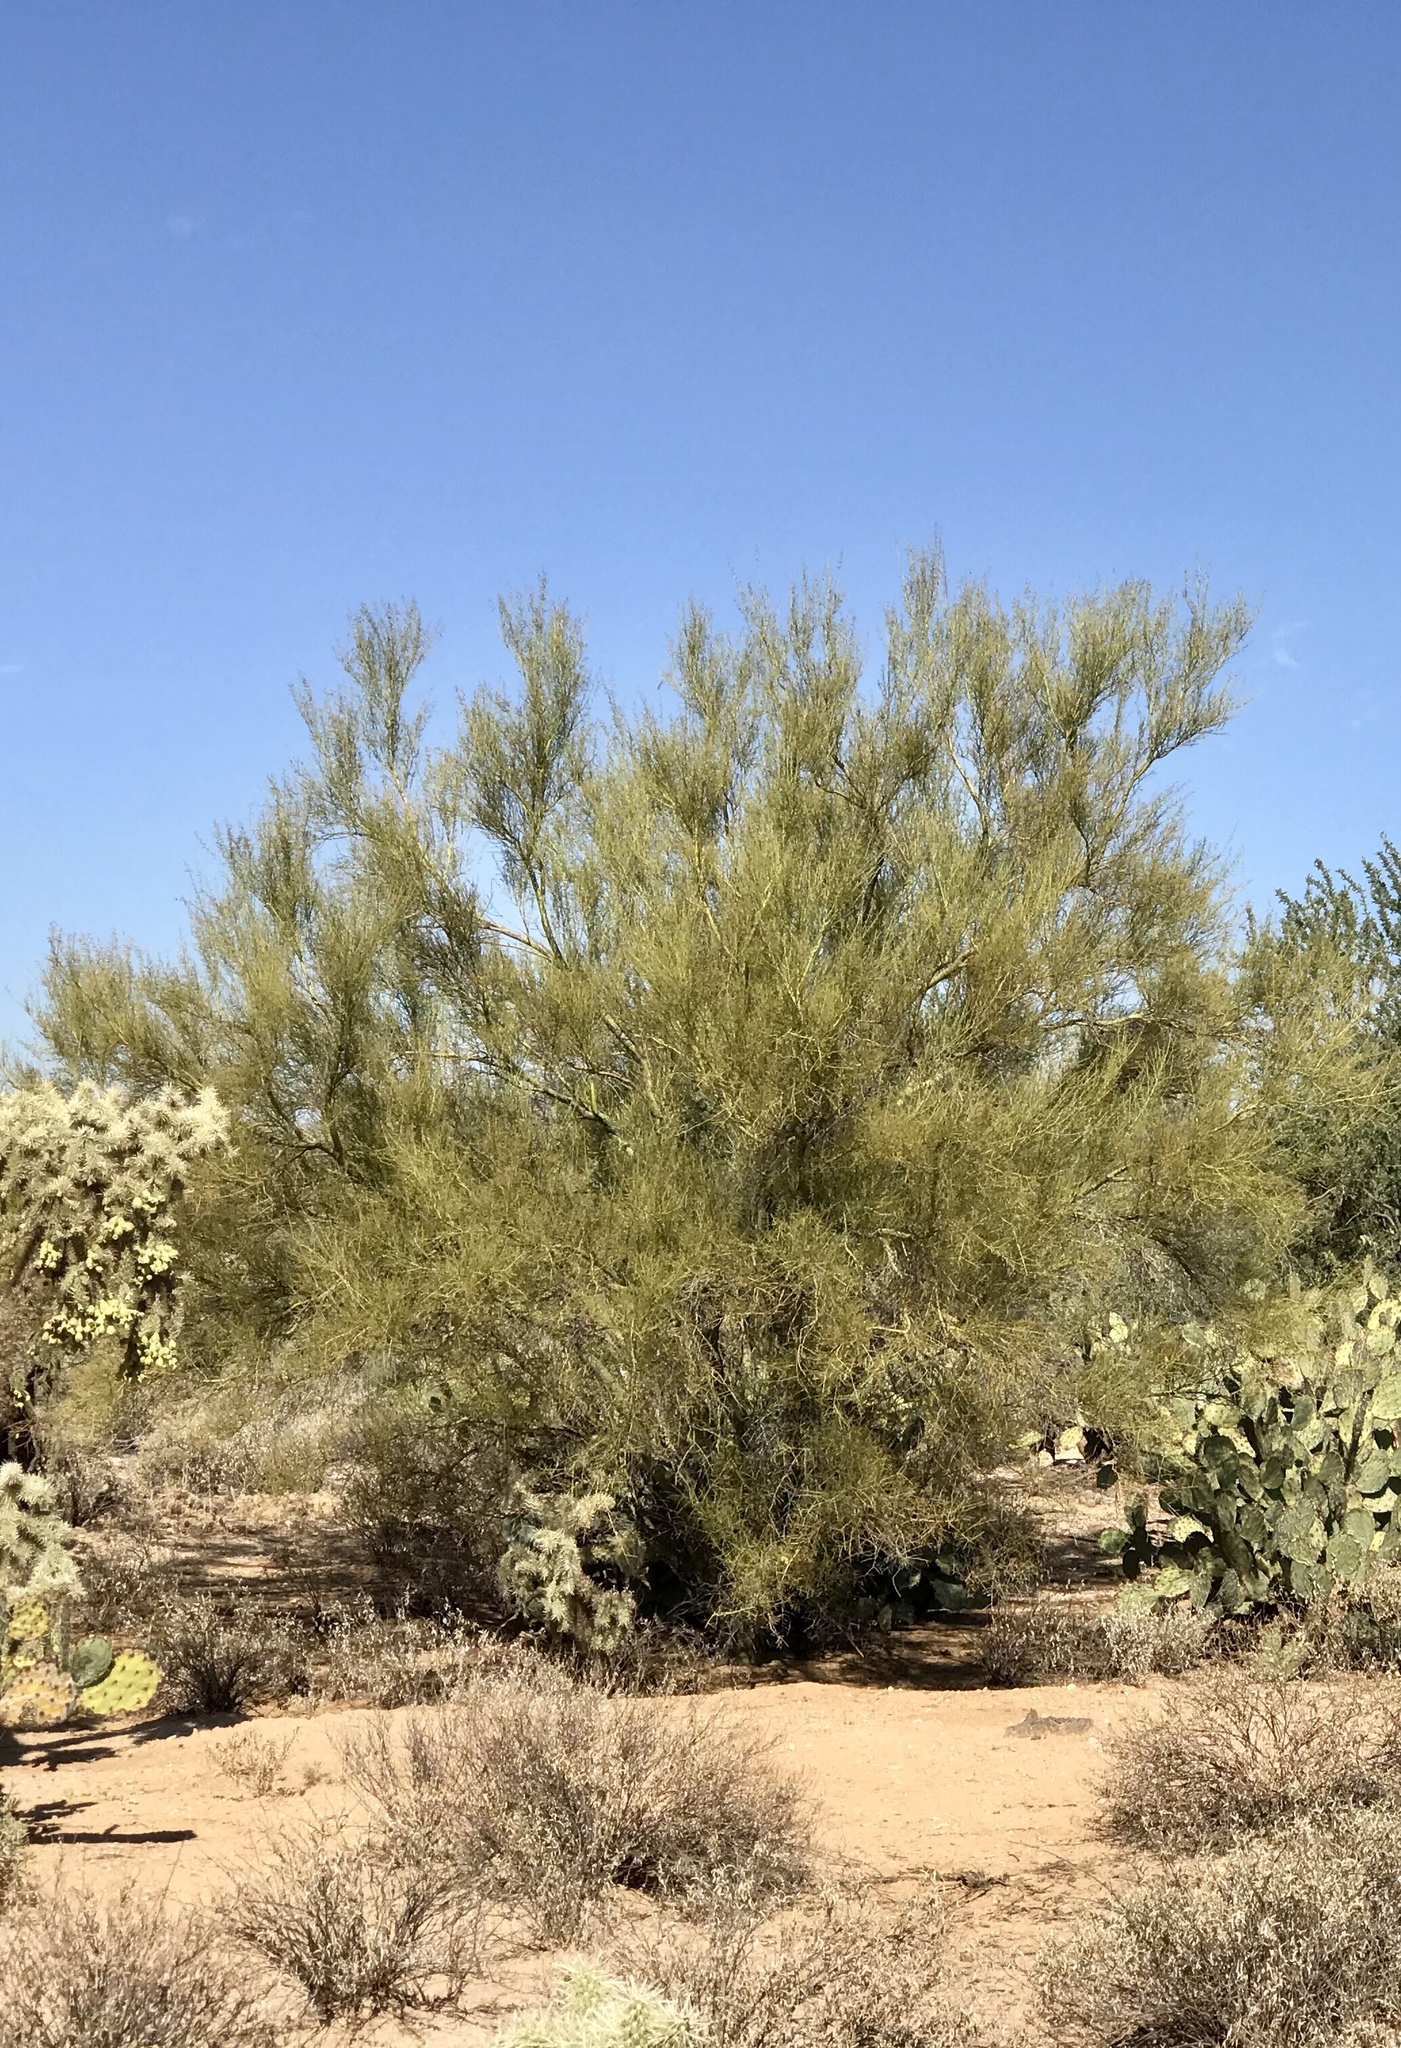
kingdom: Plantae
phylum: Tracheophyta
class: Magnoliopsida
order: Fabales
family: Fabaceae
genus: Parkinsonia
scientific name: Parkinsonia microphylla
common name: Yellow paloverde
